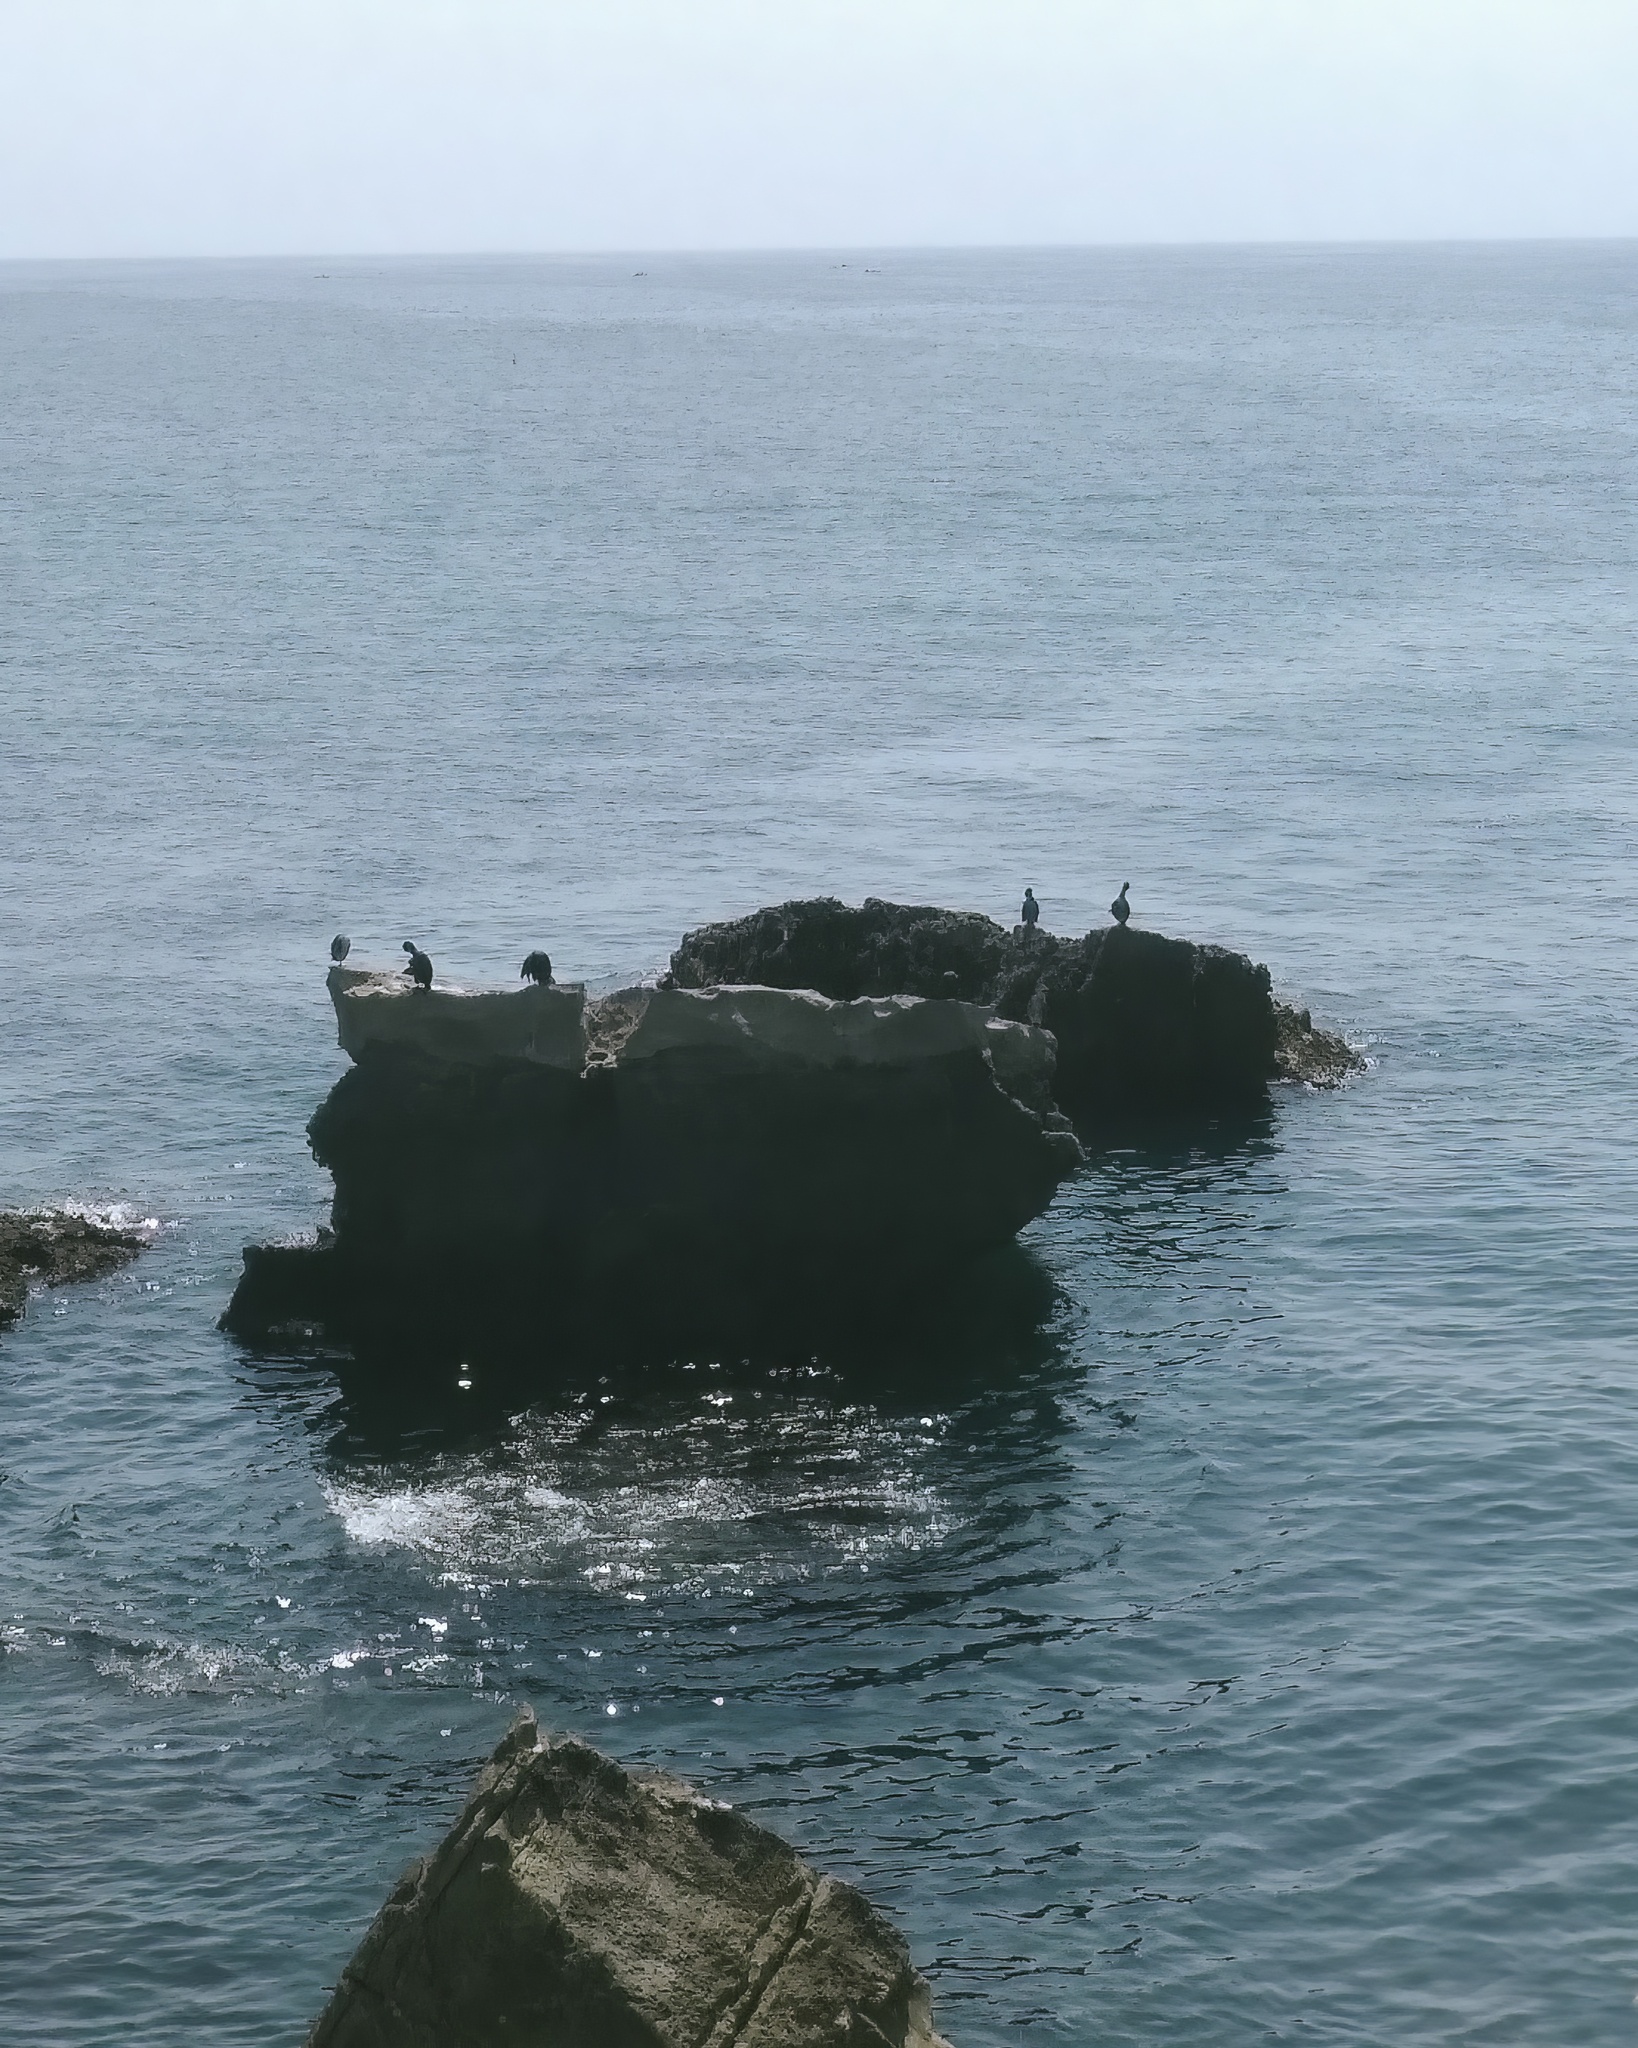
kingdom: Animalia
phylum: Chordata
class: Aves
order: Suliformes
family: Phalacrocoracidae
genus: Phalacrocorax
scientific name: Phalacrocorax aristotelis
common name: European shag
